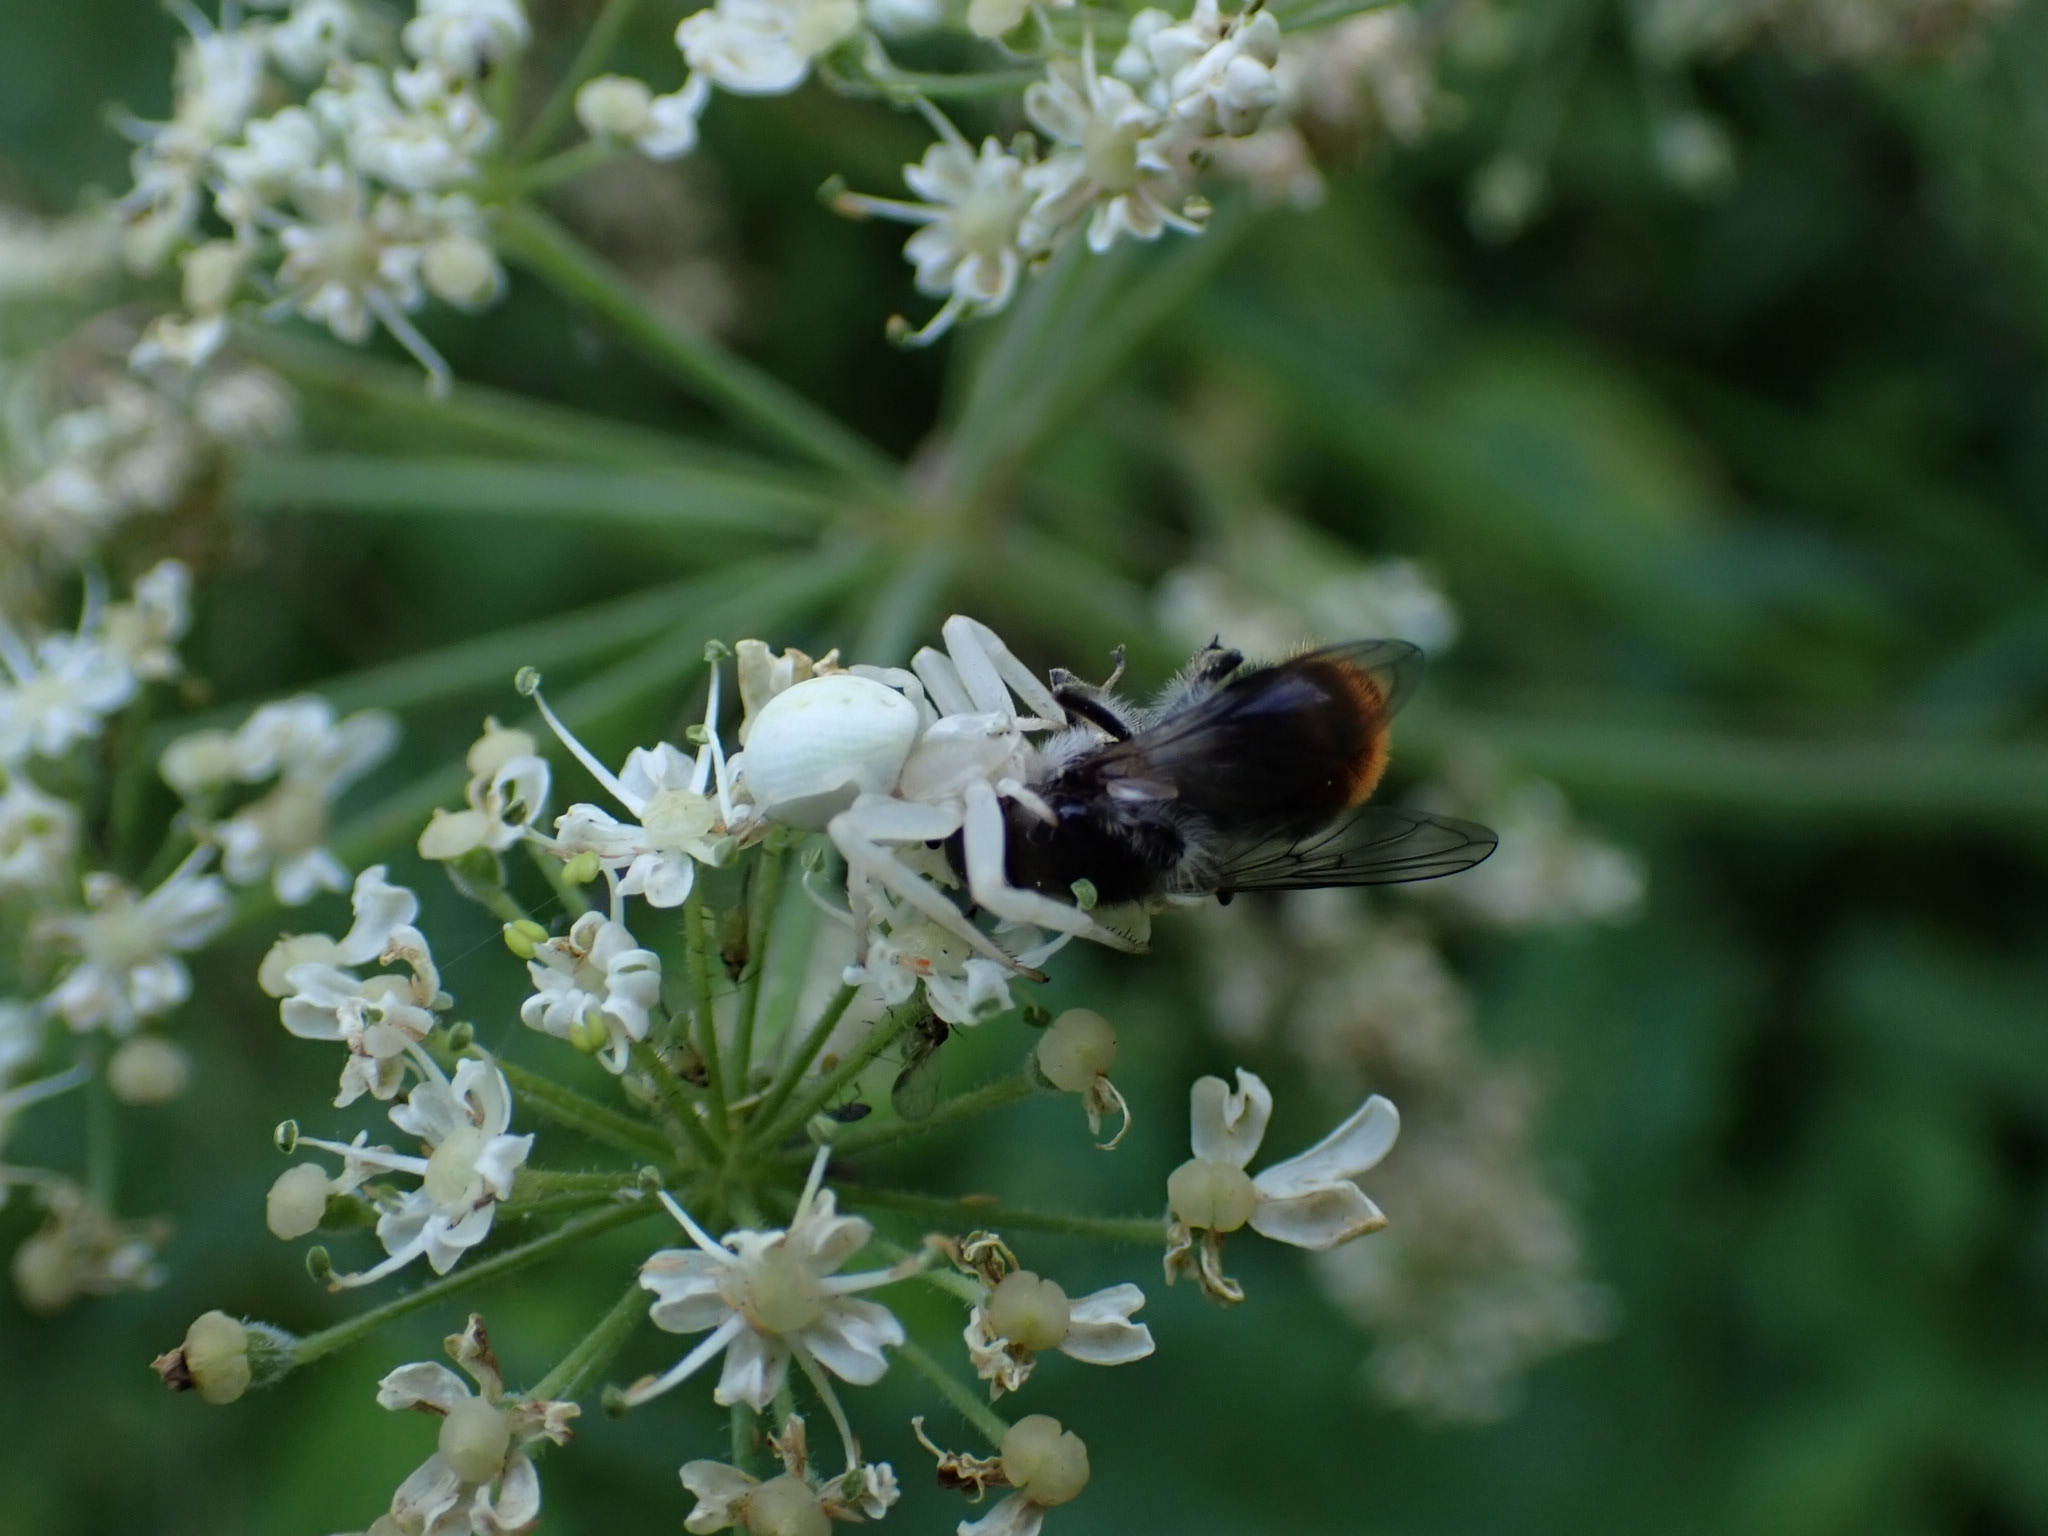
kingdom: Animalia
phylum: Arthropoda
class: Arachnida
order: Araneae
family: Thomisidae
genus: Misumena
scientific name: Misumena vatia
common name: Goldenrod crab spider
